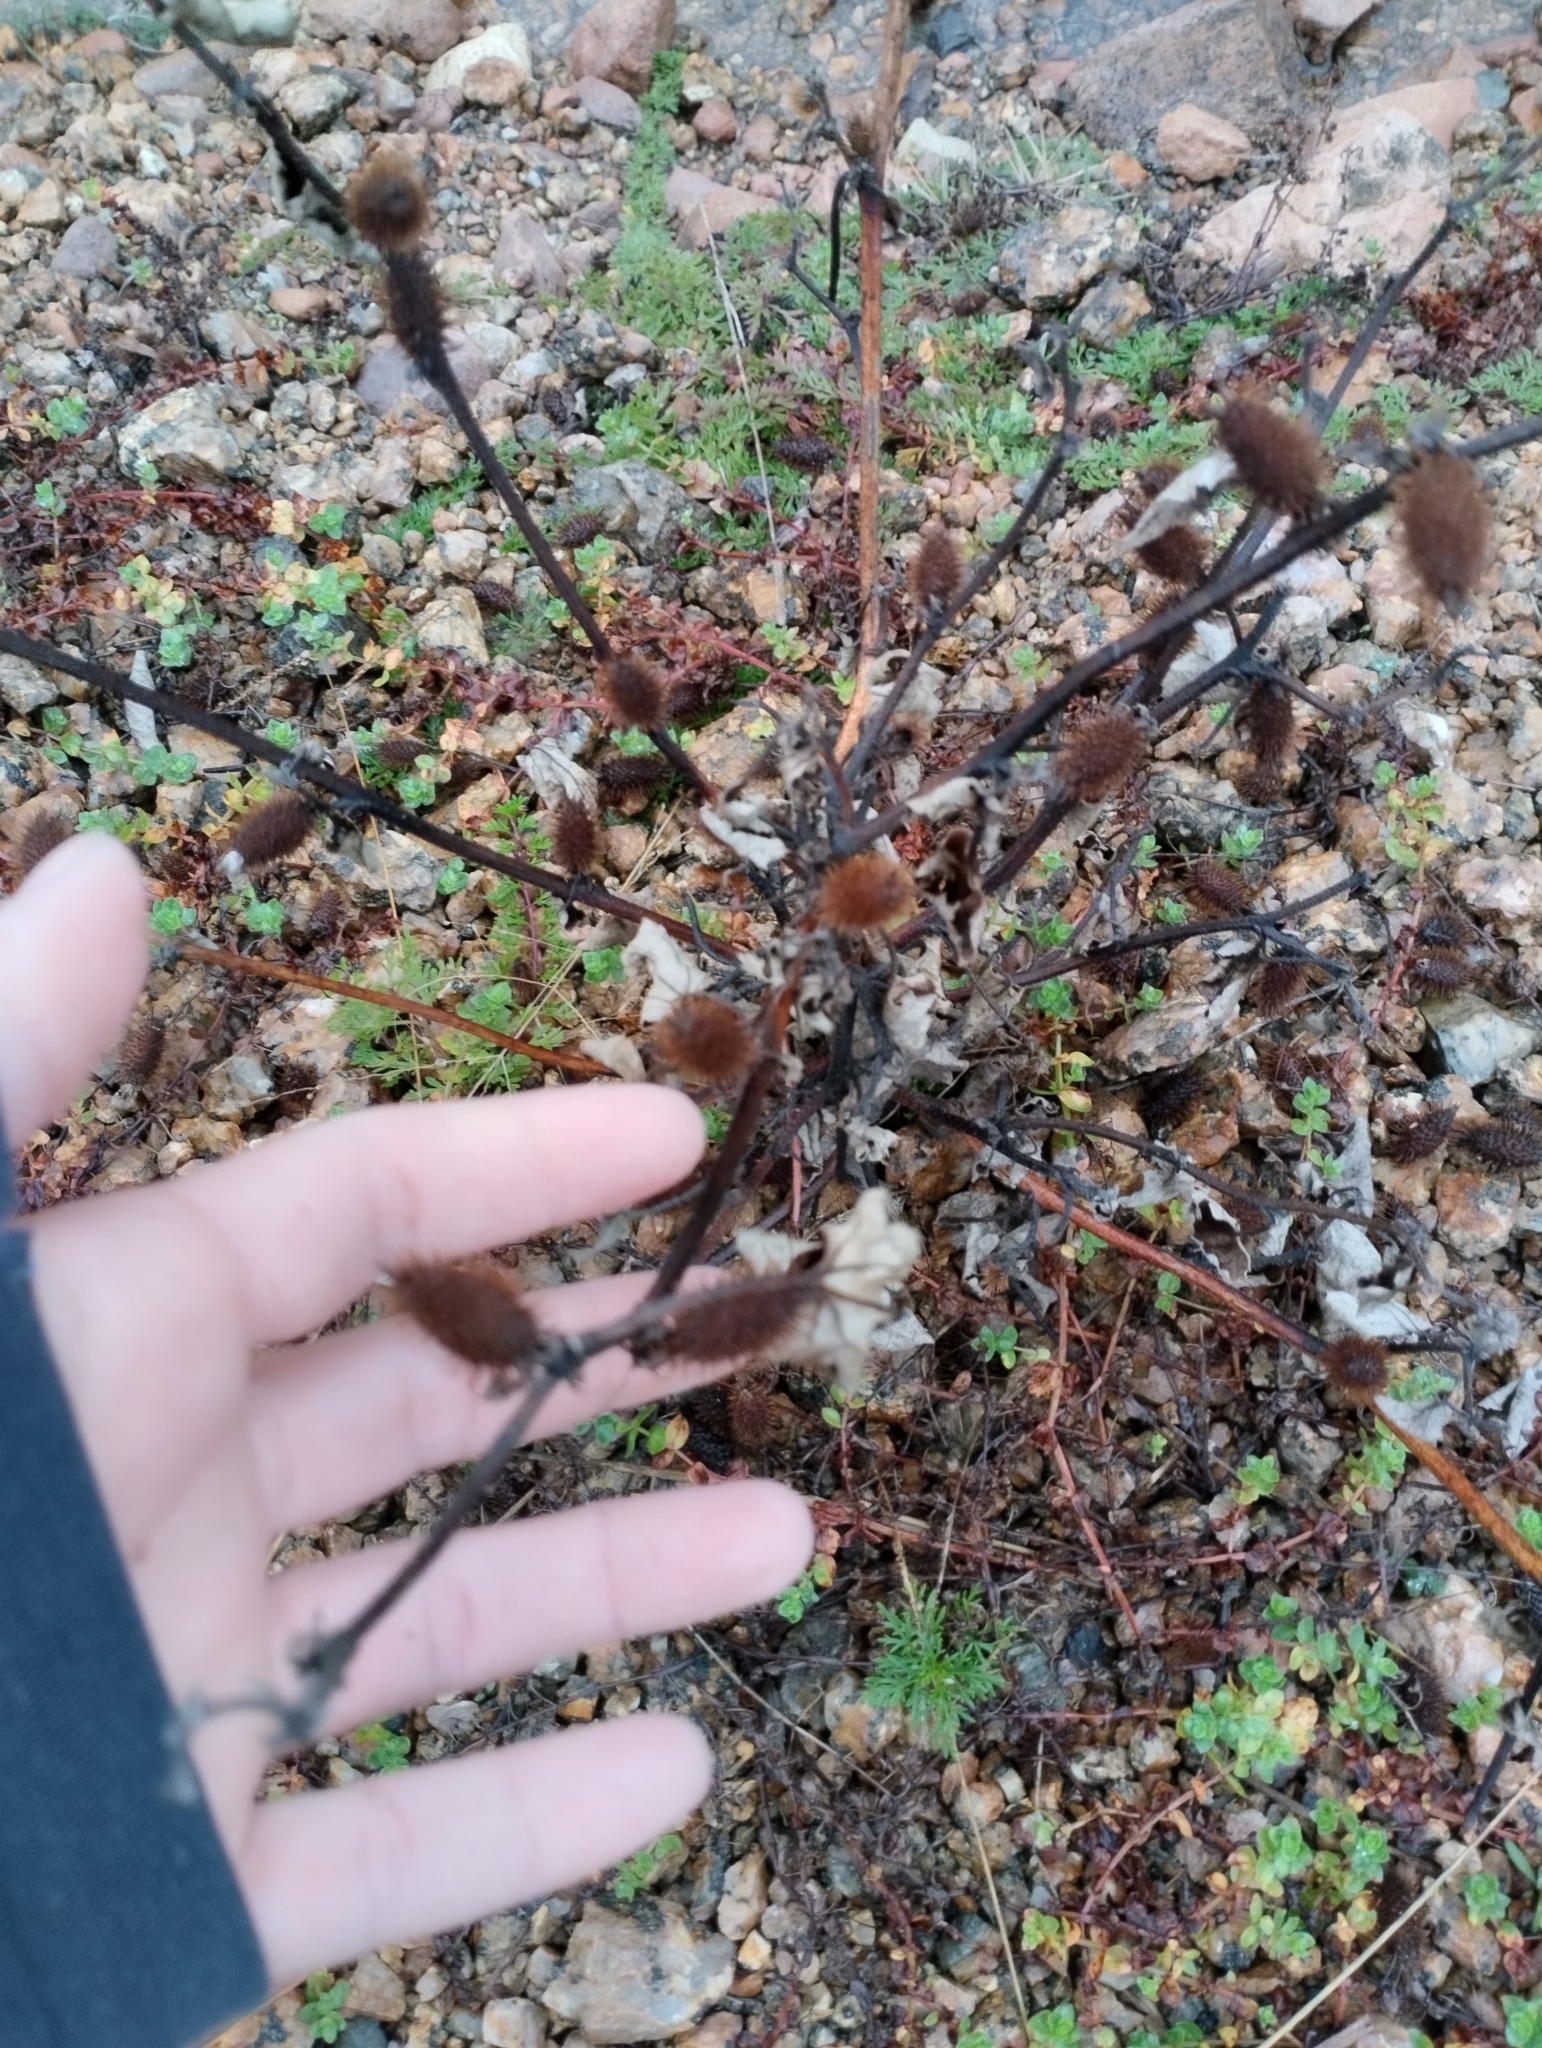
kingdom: Plantae
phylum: Tracheophyta
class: Magnoliopsida
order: Asterales
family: Asteraceae
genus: Xanthium
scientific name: Xanthium strumarium
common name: Rough cocklebur
